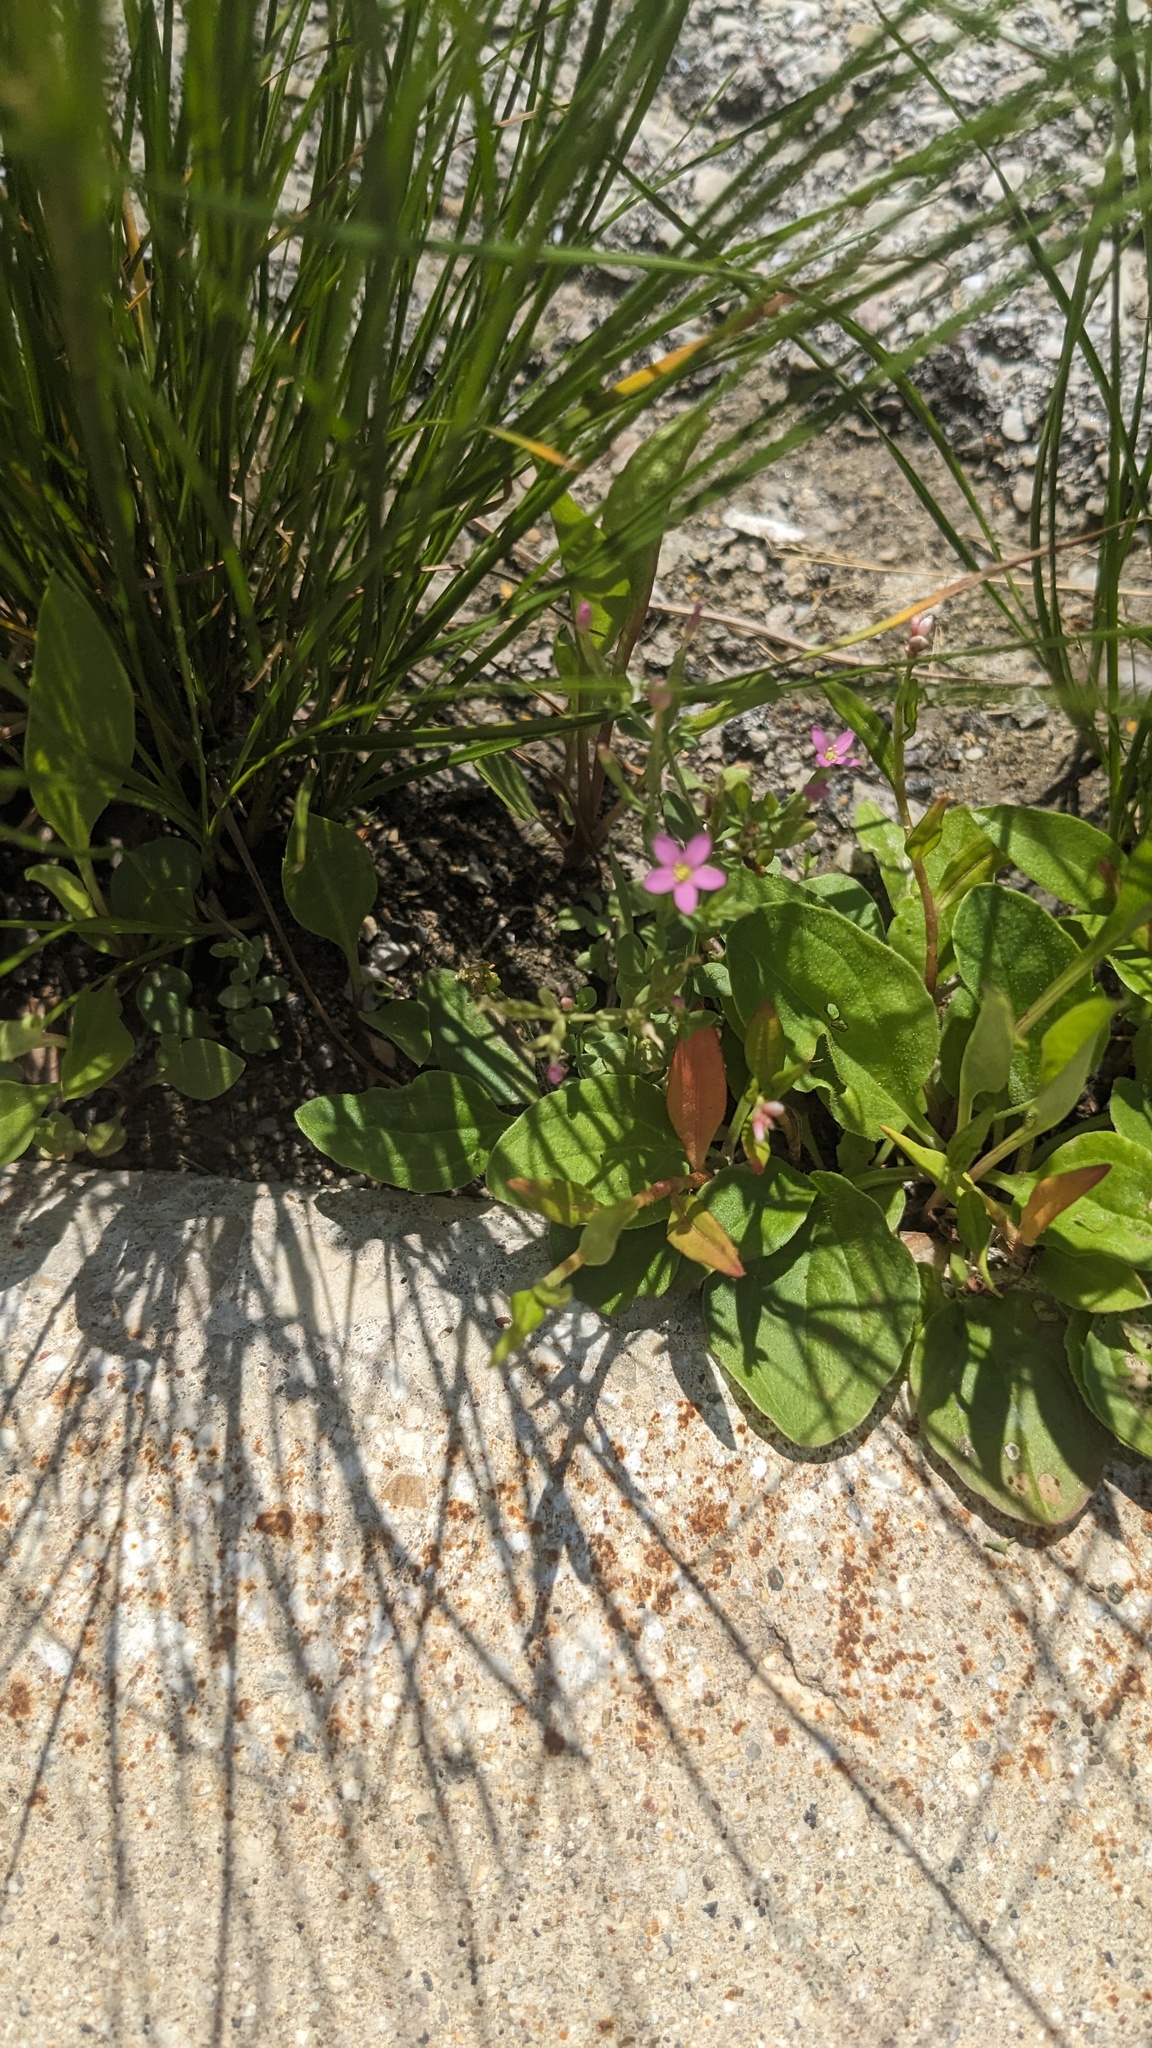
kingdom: Plantae
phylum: Tracheophyta
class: Magnoliopsida
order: Gentianales
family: Gentianaceae
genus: Centaurium
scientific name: Centaurium pulchellum
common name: Lesser centaury
